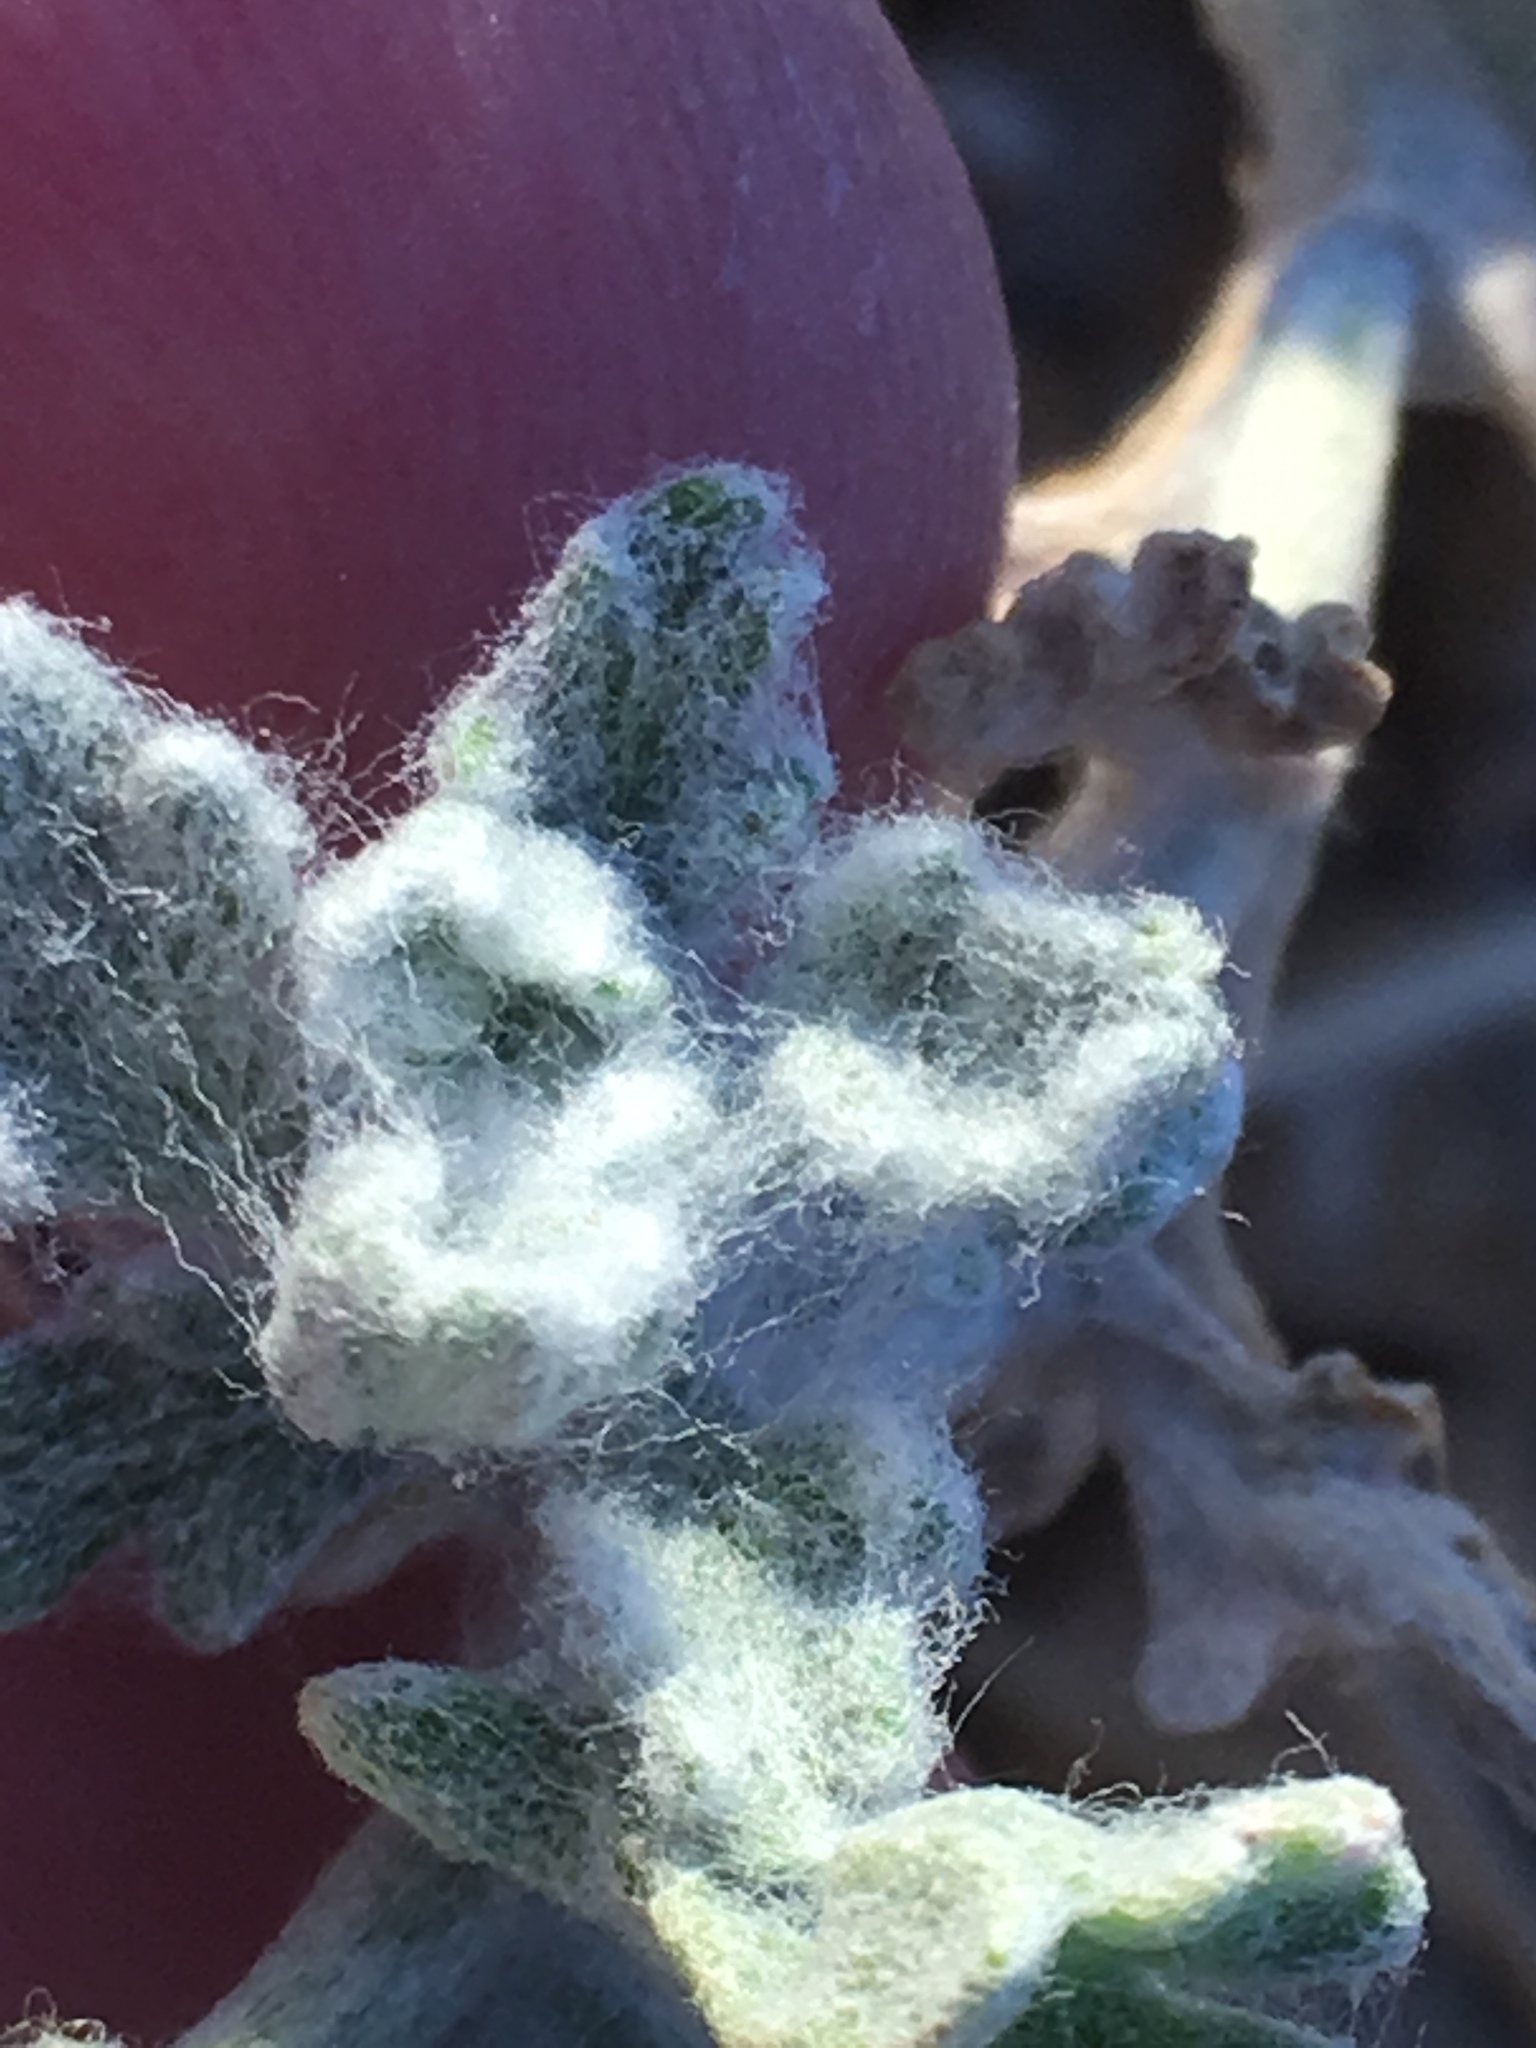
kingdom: Plantae
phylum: Tracheophyta
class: Magnoliopsida
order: Asterales
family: Asteraceae
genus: Baileya
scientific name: Baileya multiradiata
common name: Desert-marigold
